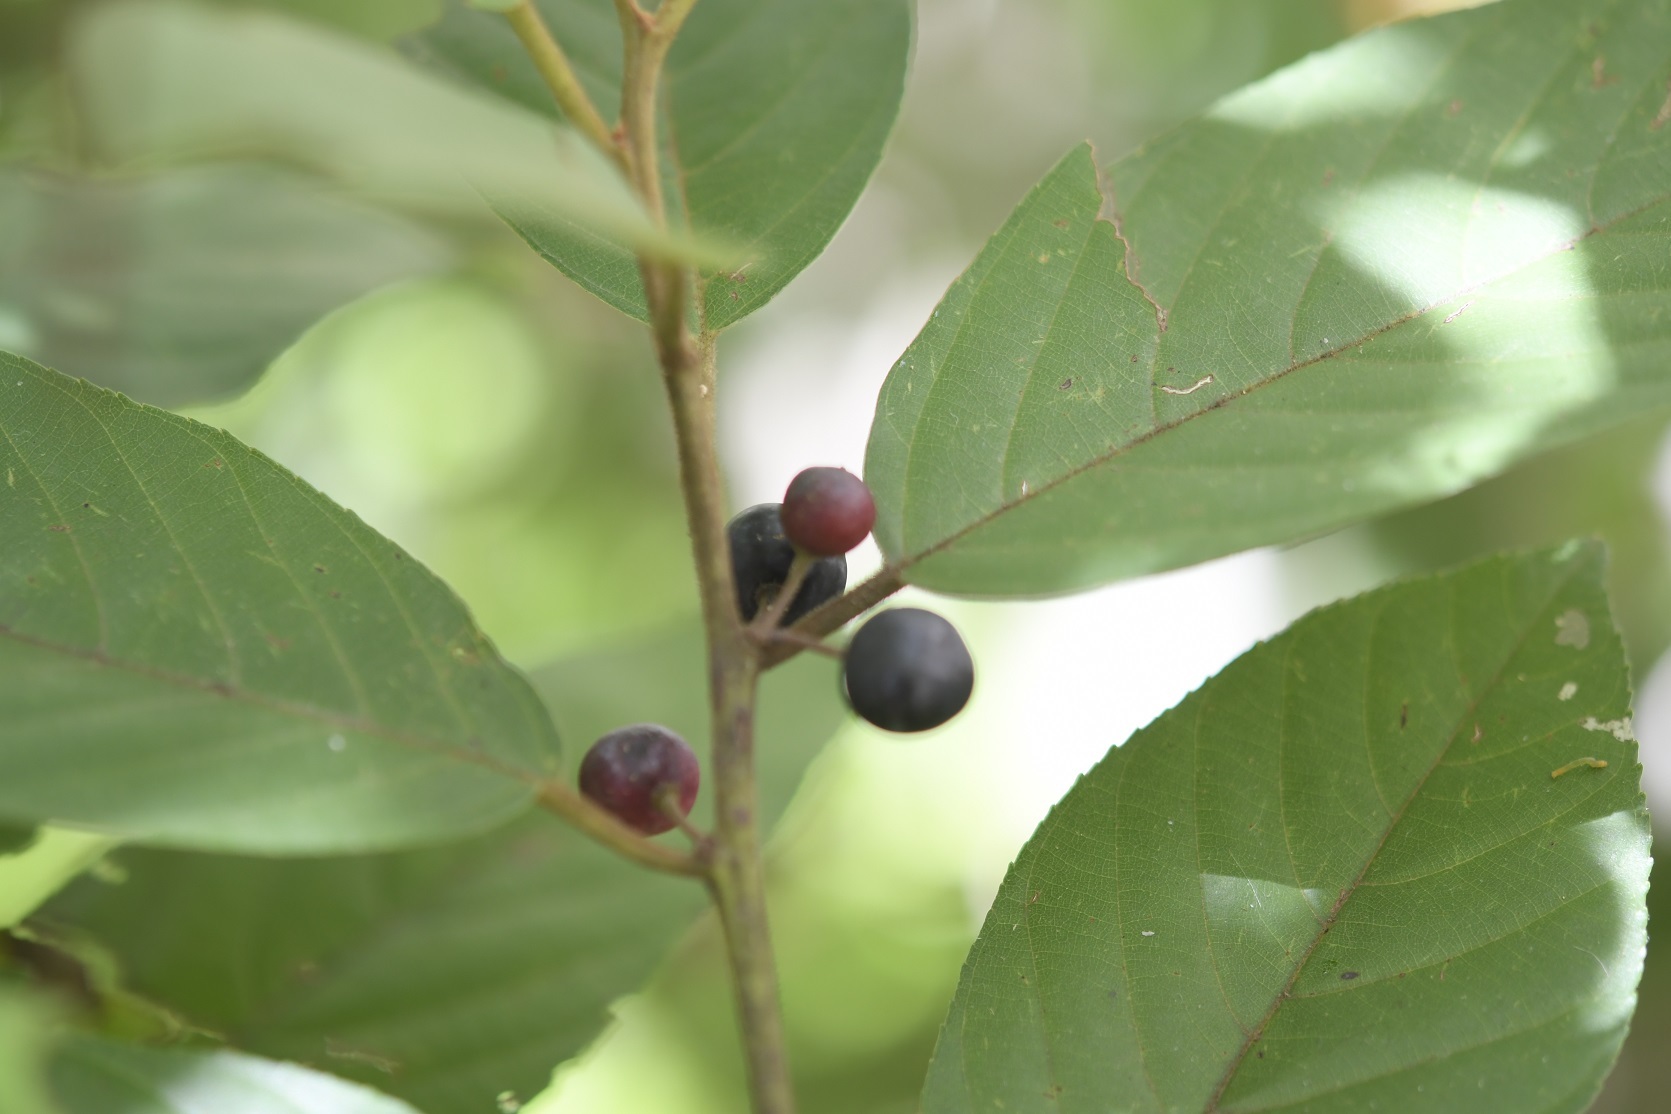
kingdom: Plantae
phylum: Tracheophyta
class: Magnoliopsida
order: Rosales
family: Rhamnaceae
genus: Frangula
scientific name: Frangula capreifolia
